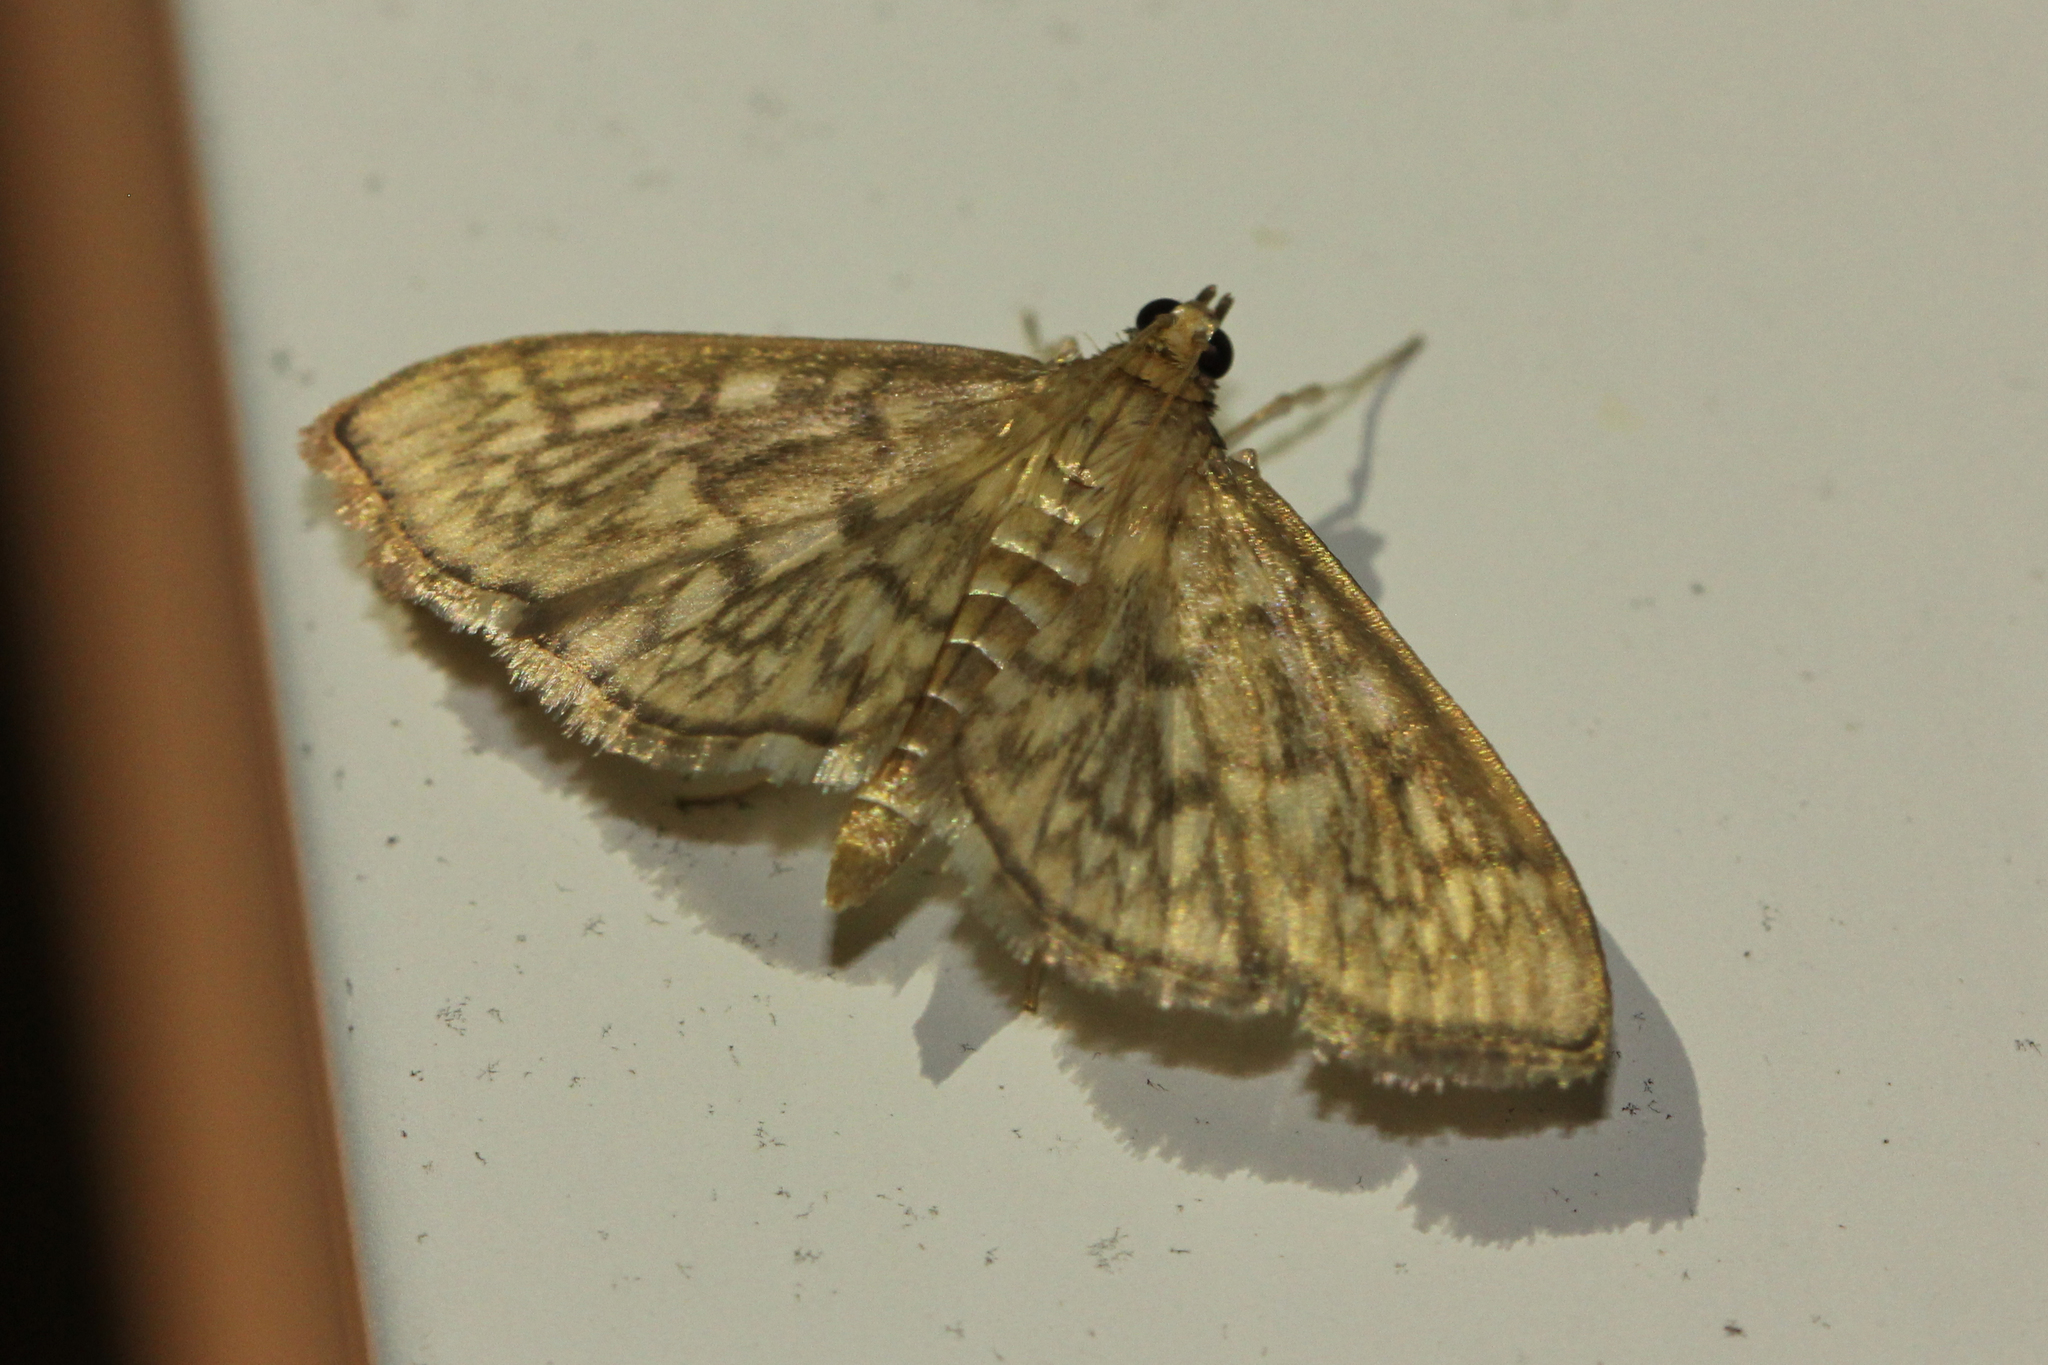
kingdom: Animalia
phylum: Arthropoda
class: Insecta
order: Lepidoptera
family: Crambidae
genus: Herpetogramma
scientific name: Herpetogramma pertextalis
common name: Bold-feathered grass moth
